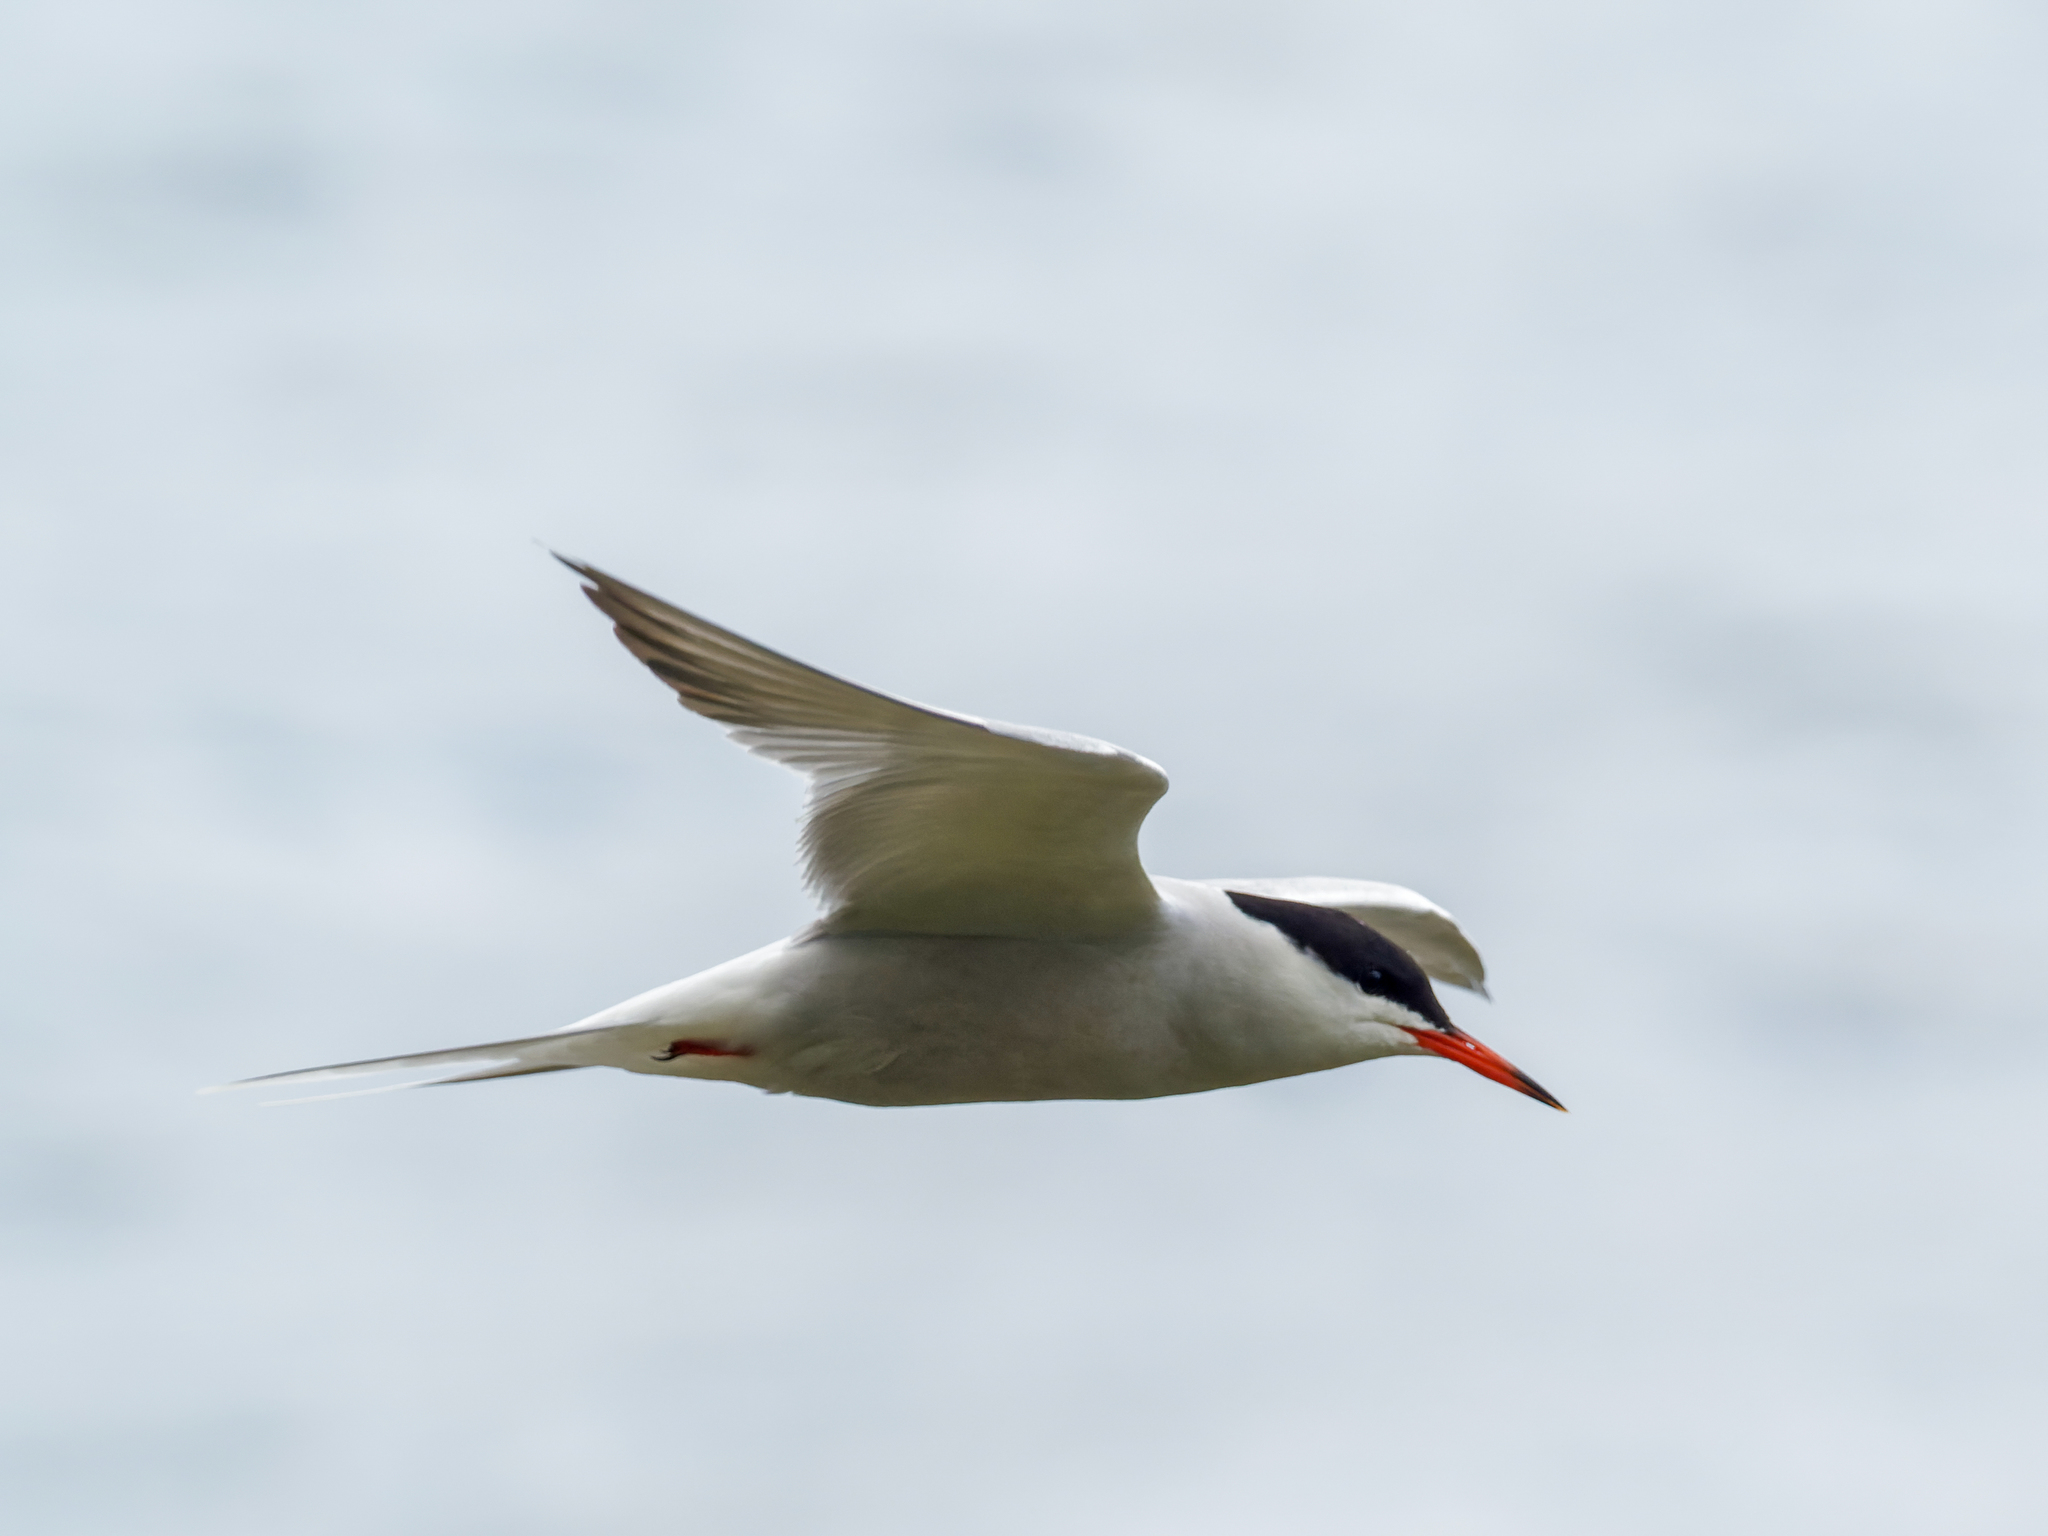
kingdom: Animalia
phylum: Chordata
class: Aves
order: Charadriiformes
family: Laridae
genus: Sterna
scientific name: Sterna hirundo
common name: Common tern
